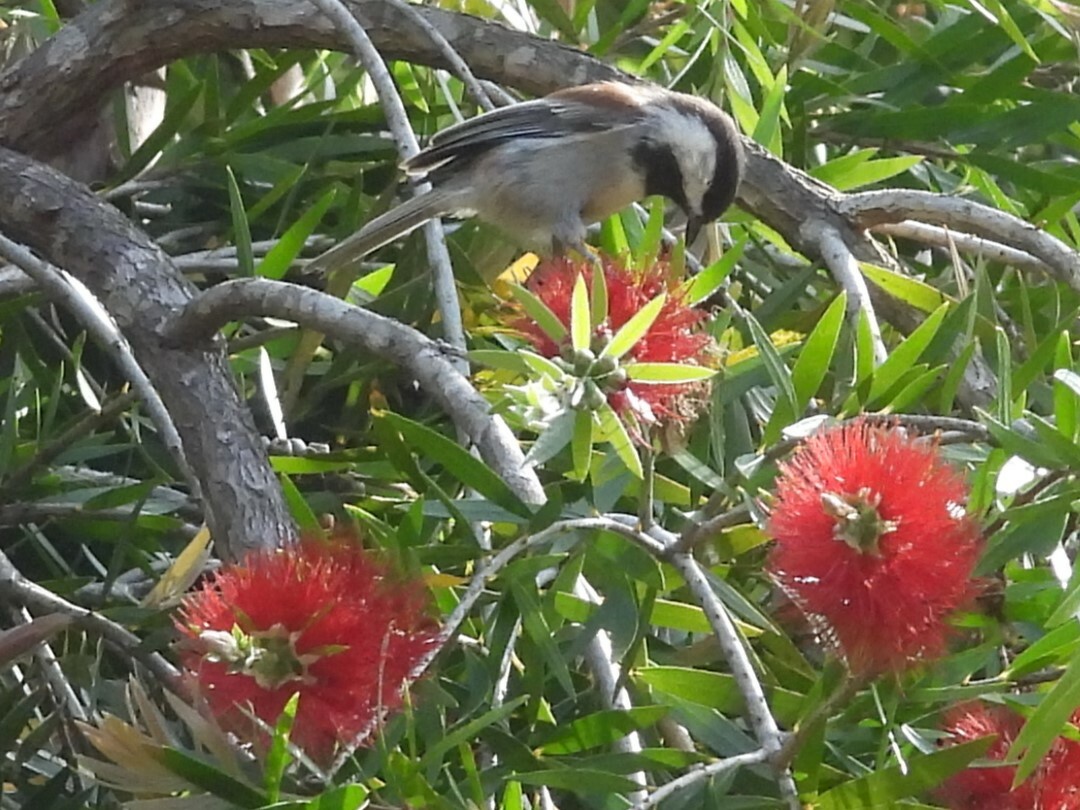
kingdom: Animalia
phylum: Chordata
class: Aves
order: Passeriformes
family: Paridae
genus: Poecile
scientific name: Poecile rufescens
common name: Chestnut-backed chickadee
